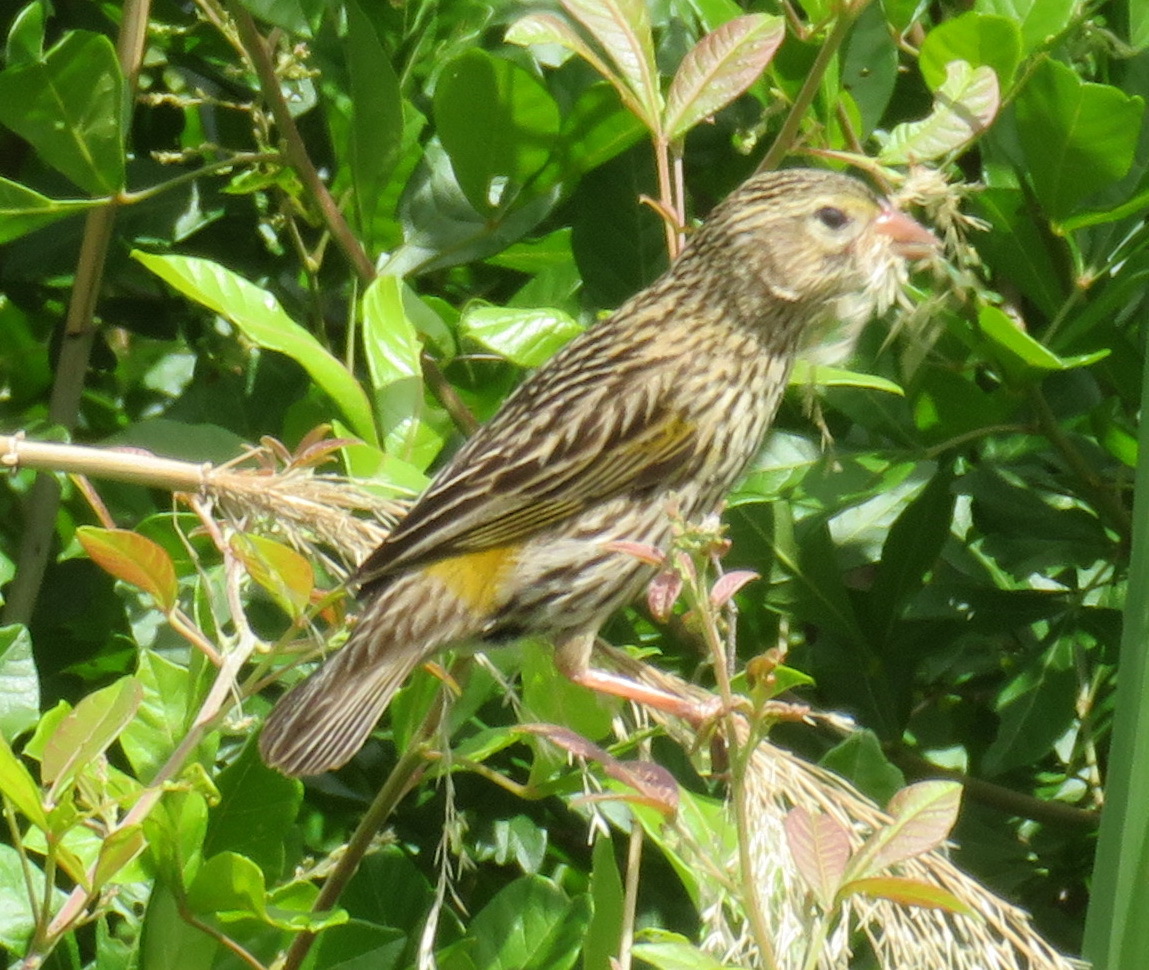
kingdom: Animalia
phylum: Chordata
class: Aves
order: Passeriformes
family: Ploceidae
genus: Euplectes
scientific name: Euplectes capensis
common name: Yellow bishop
